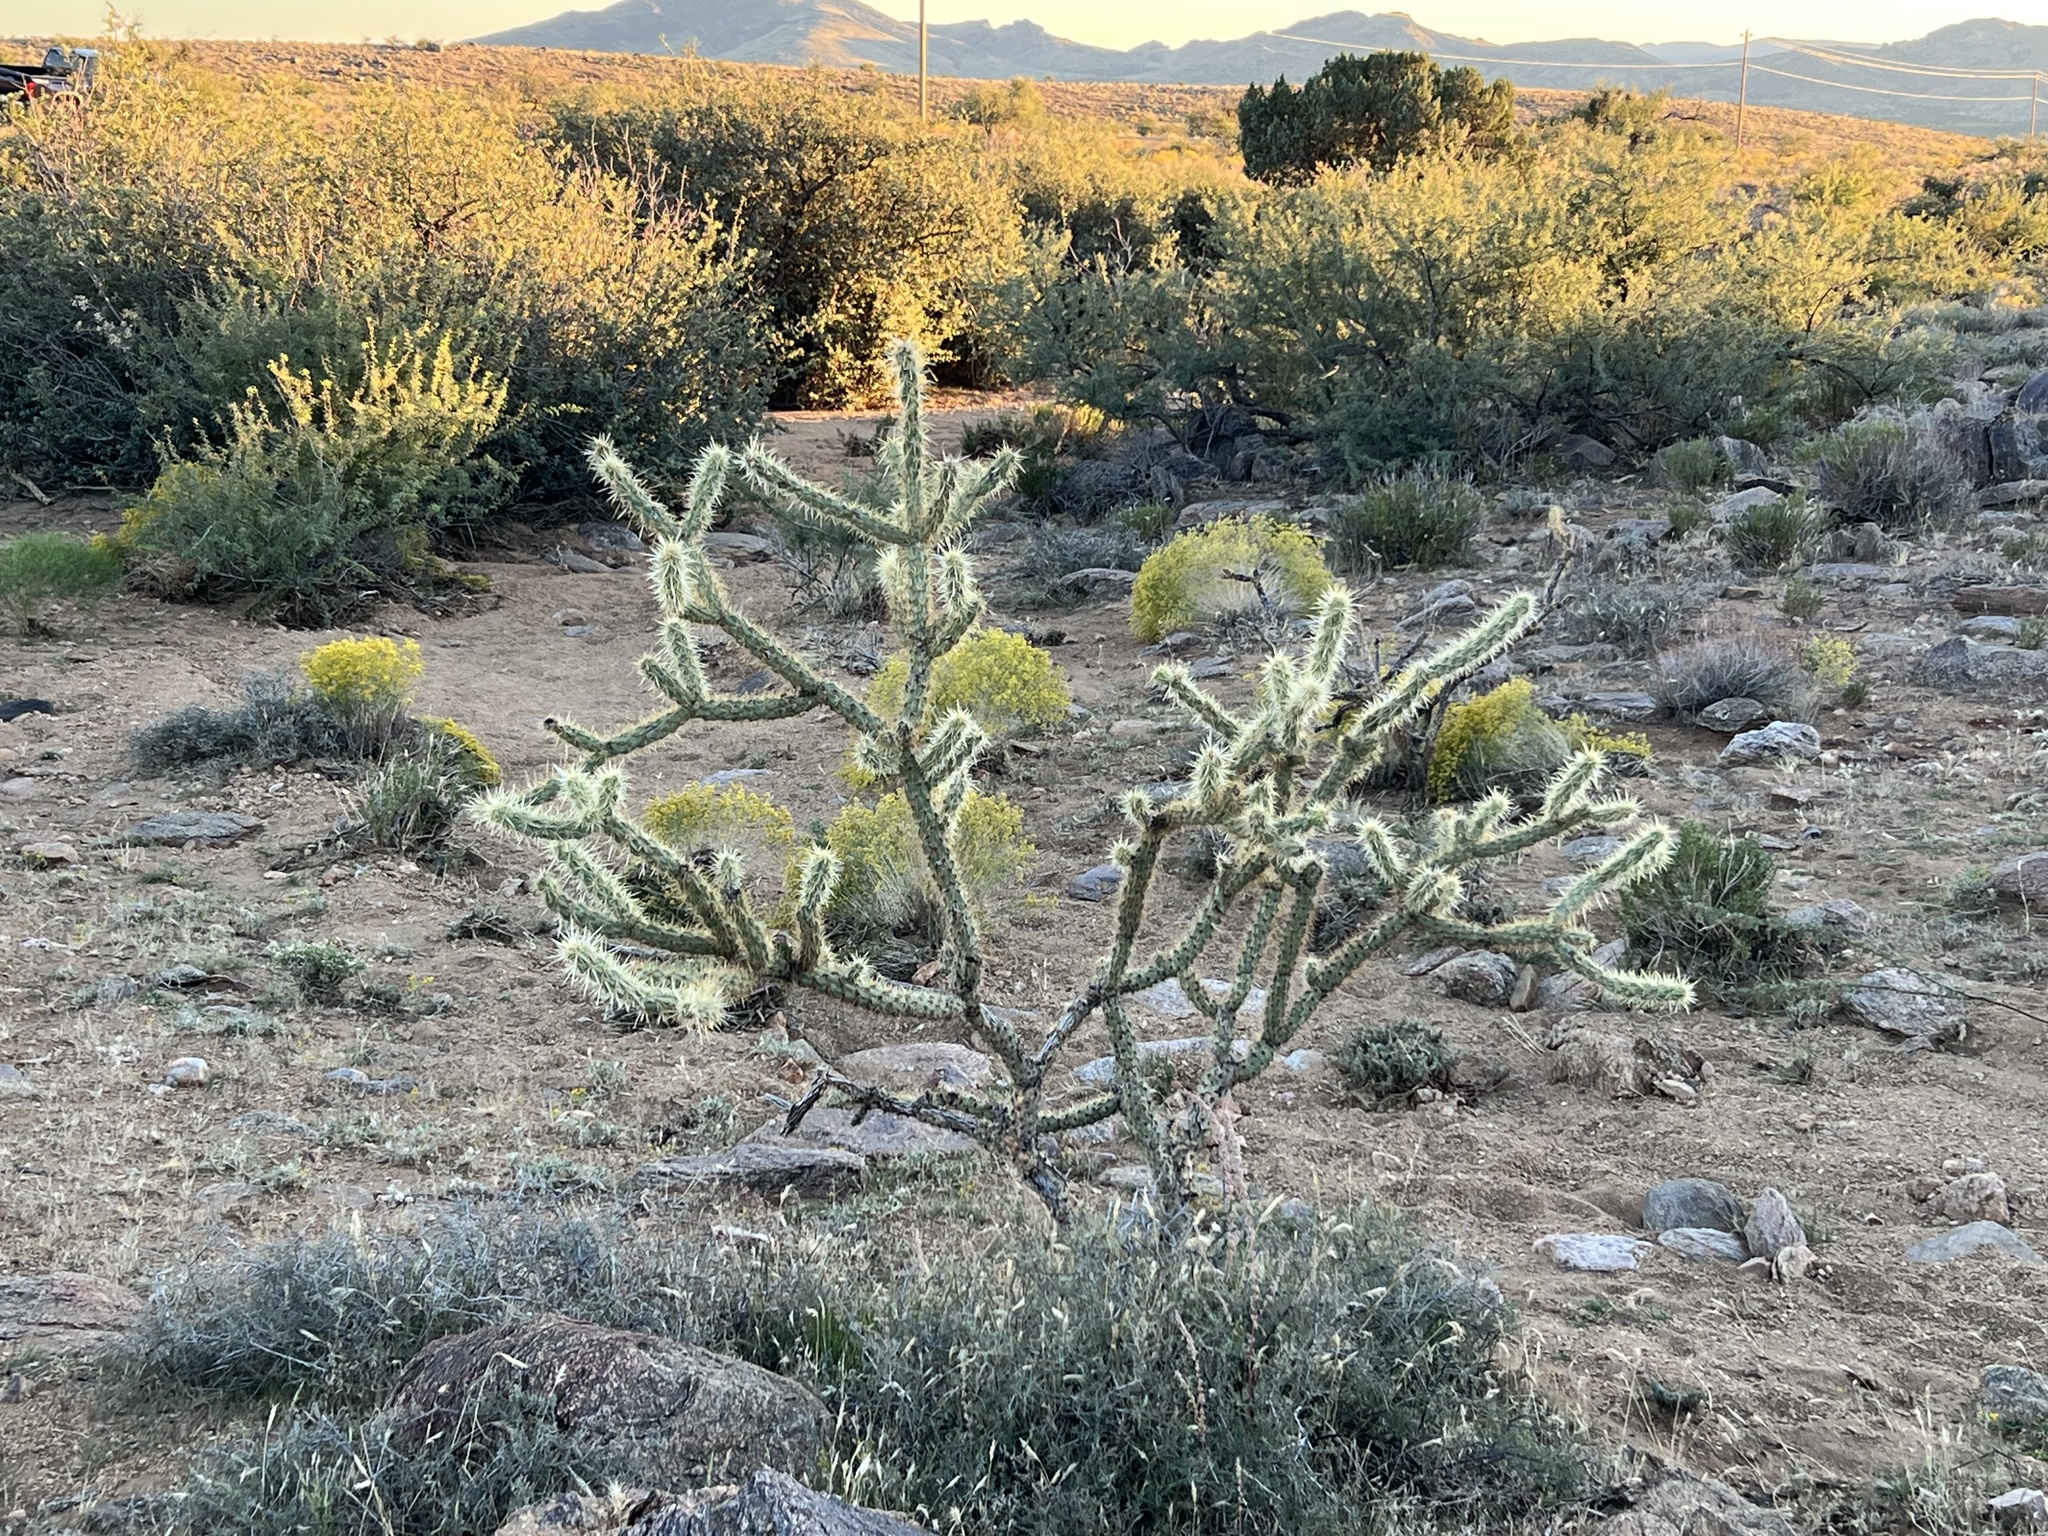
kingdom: Plantae
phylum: Tracheophyta
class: Magnoliopsida
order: Caryophyllales
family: Cactaceae
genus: Cylindropuntia
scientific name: Cylindropuntia acanthocarpa
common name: Buckhorn cholla
